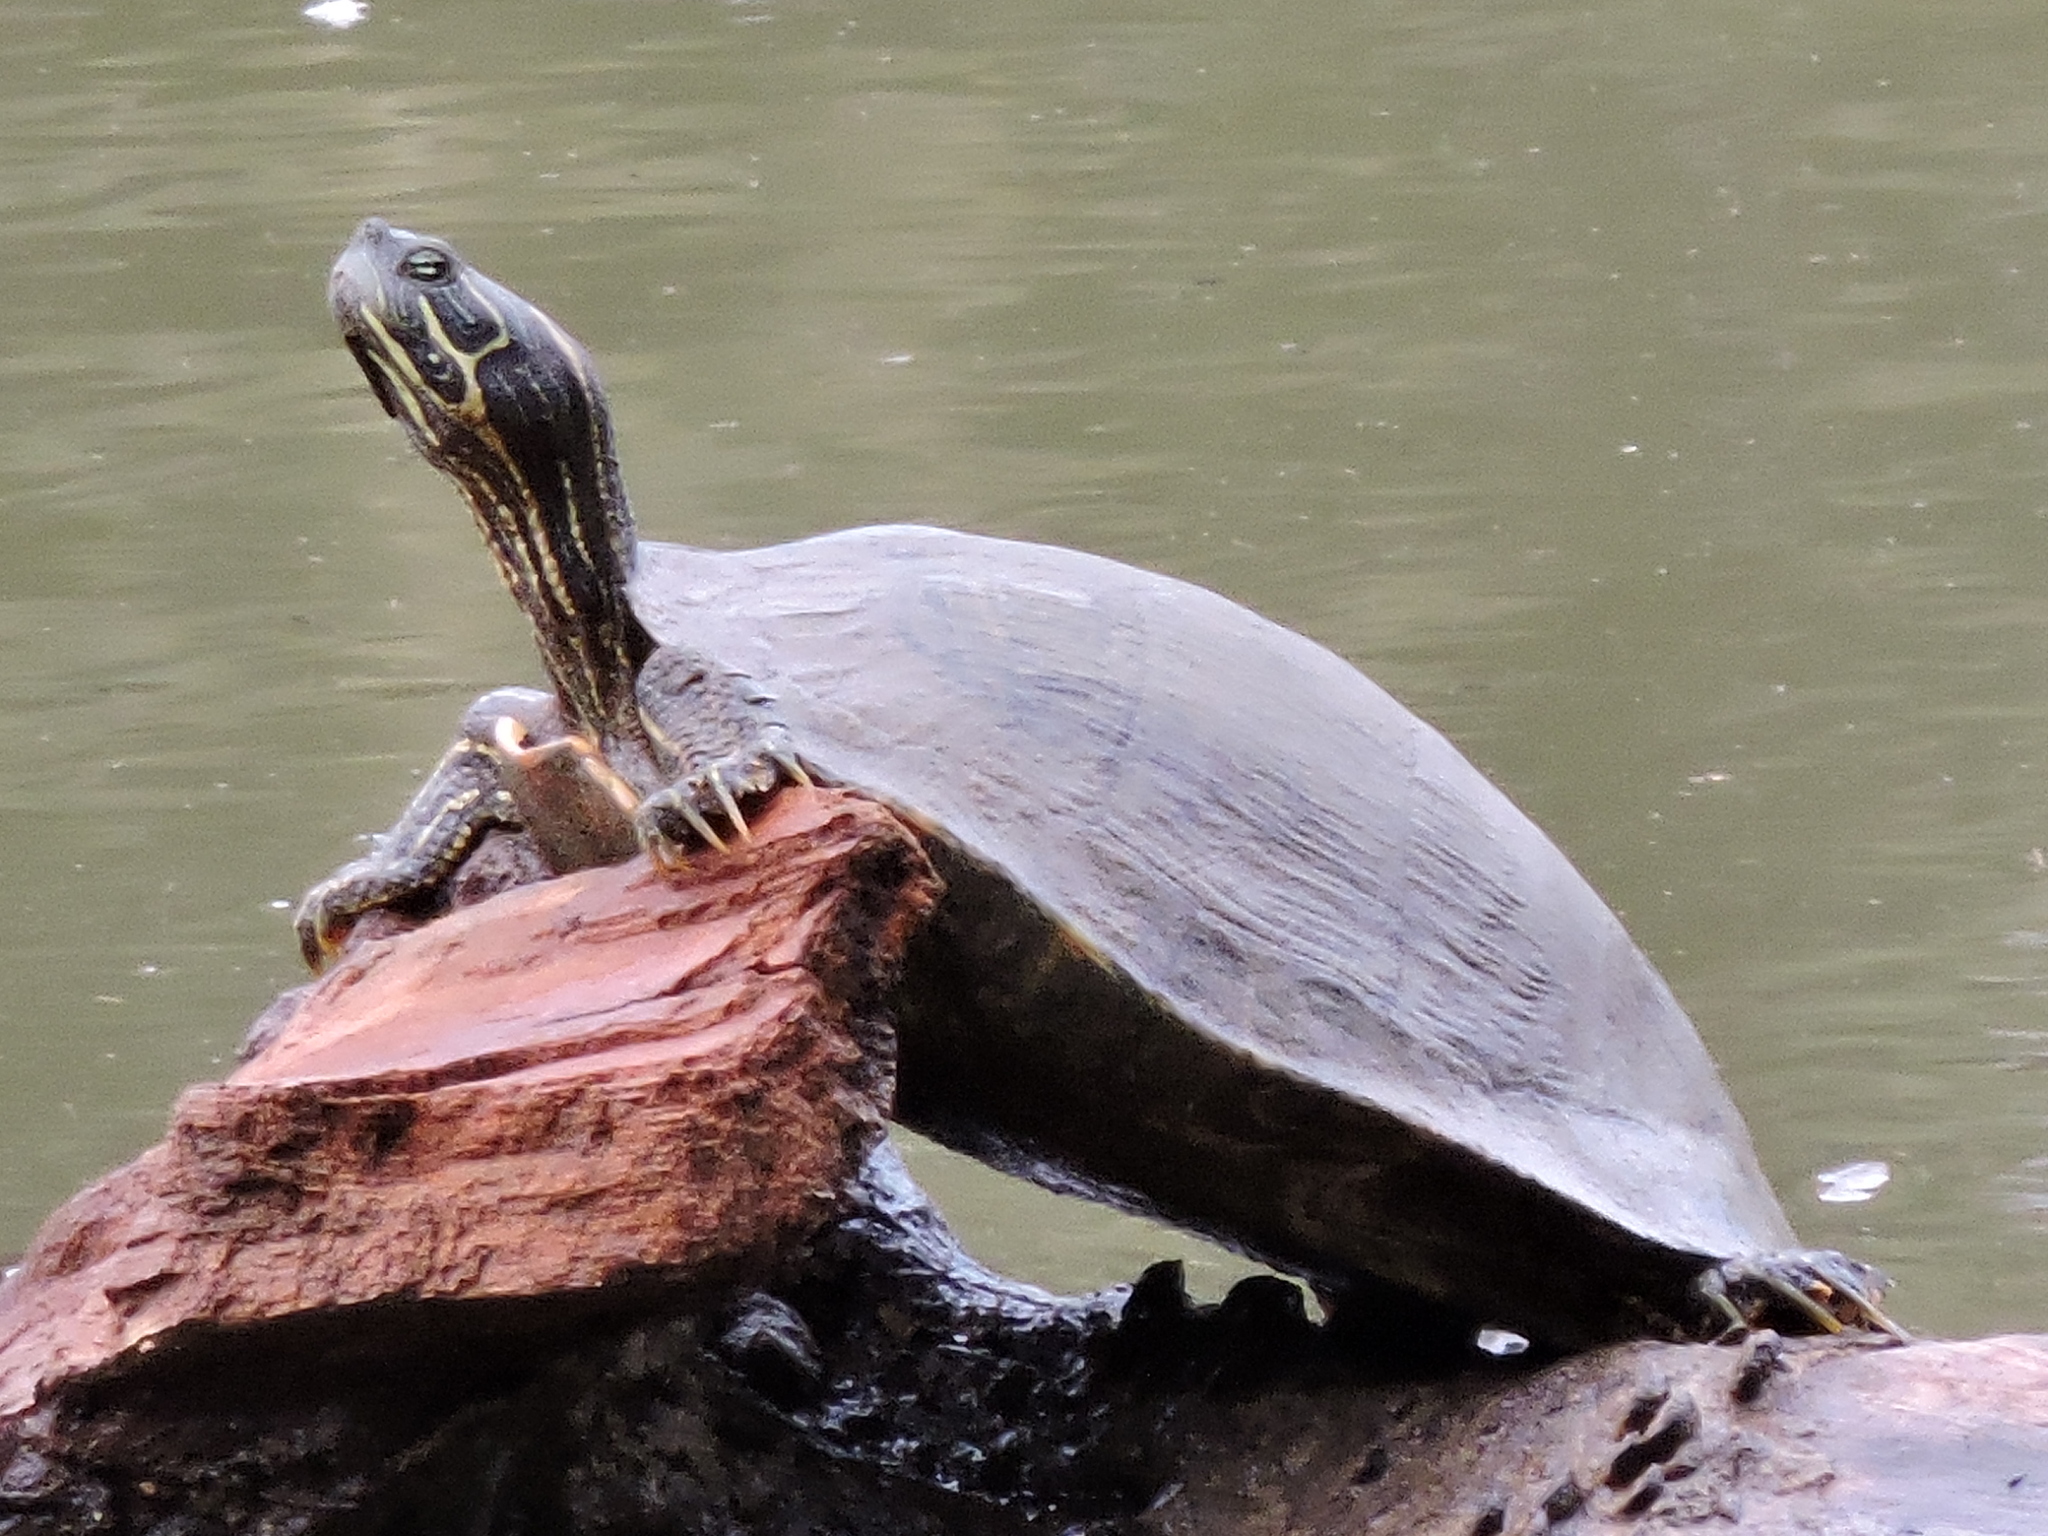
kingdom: Animalia
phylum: Chordata
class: Testudines
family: Emydidae
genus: Pseudemys
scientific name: Pseudemys texana
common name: Texas river cooter
